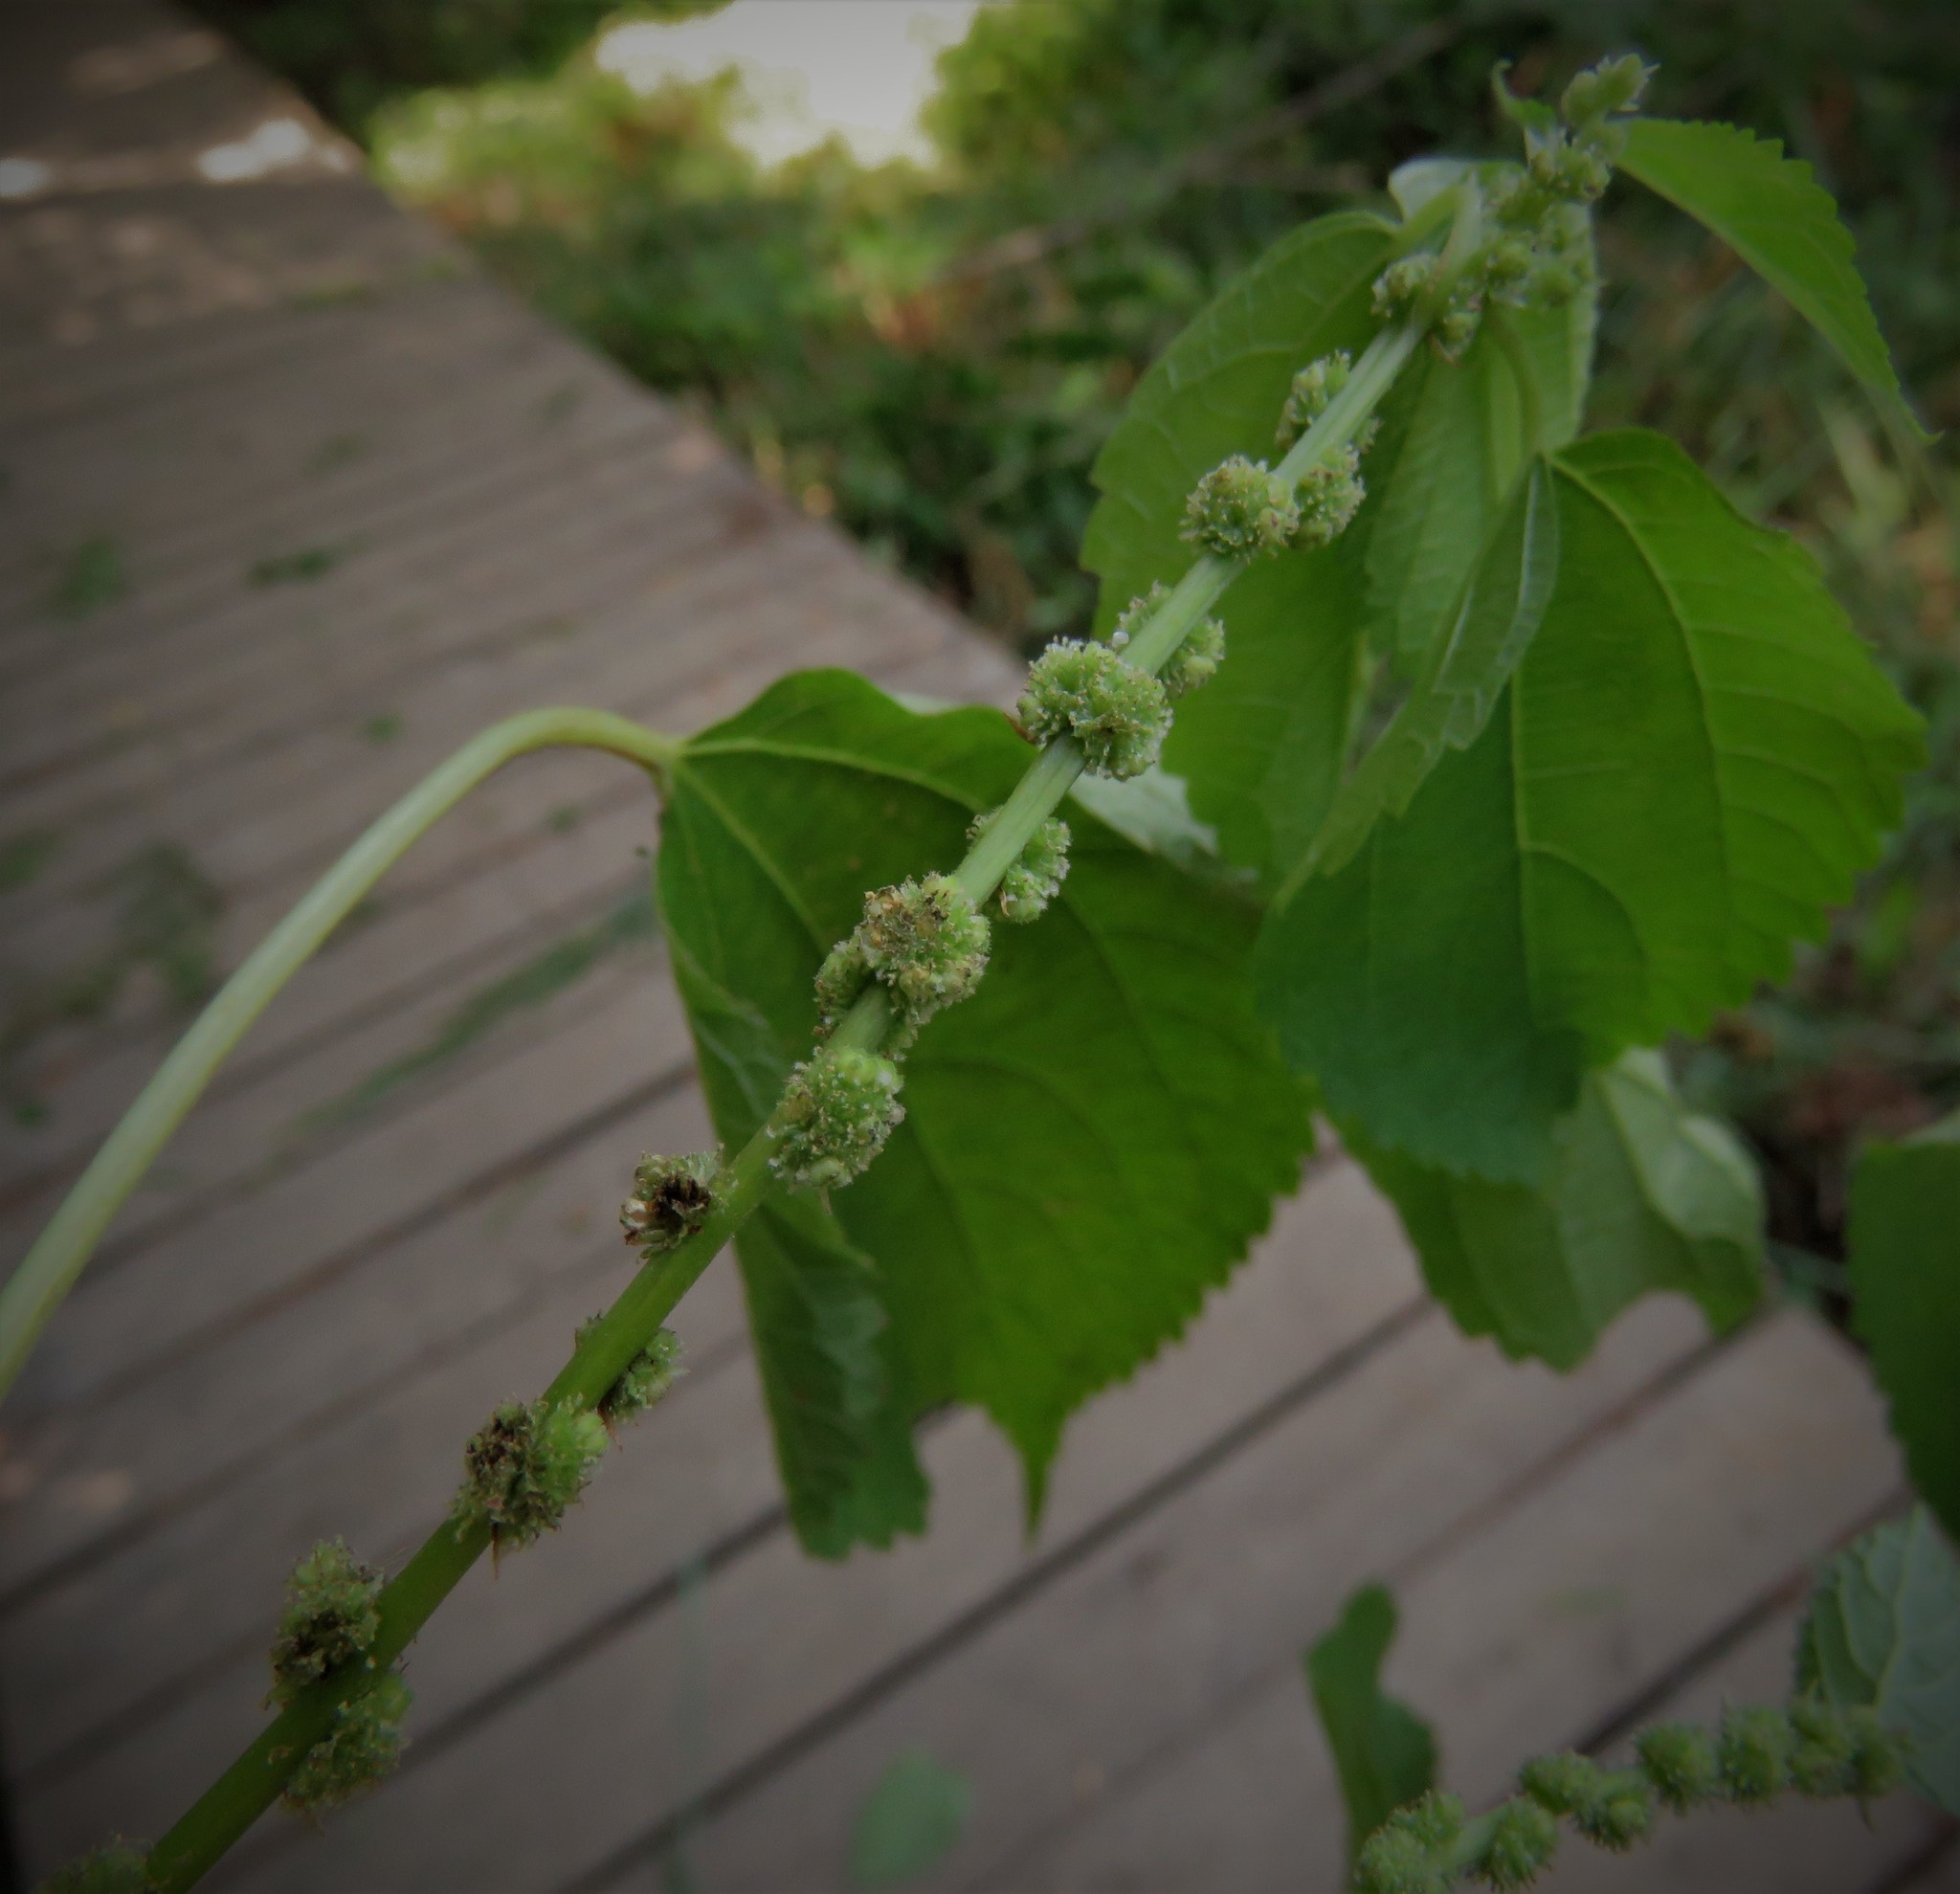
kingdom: Plantae
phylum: Tracheophyta
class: Magnoliopsida
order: Rosales
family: Urticaceae
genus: Boehmeria
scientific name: Boehmeria cylindrica
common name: Bog-hemp
